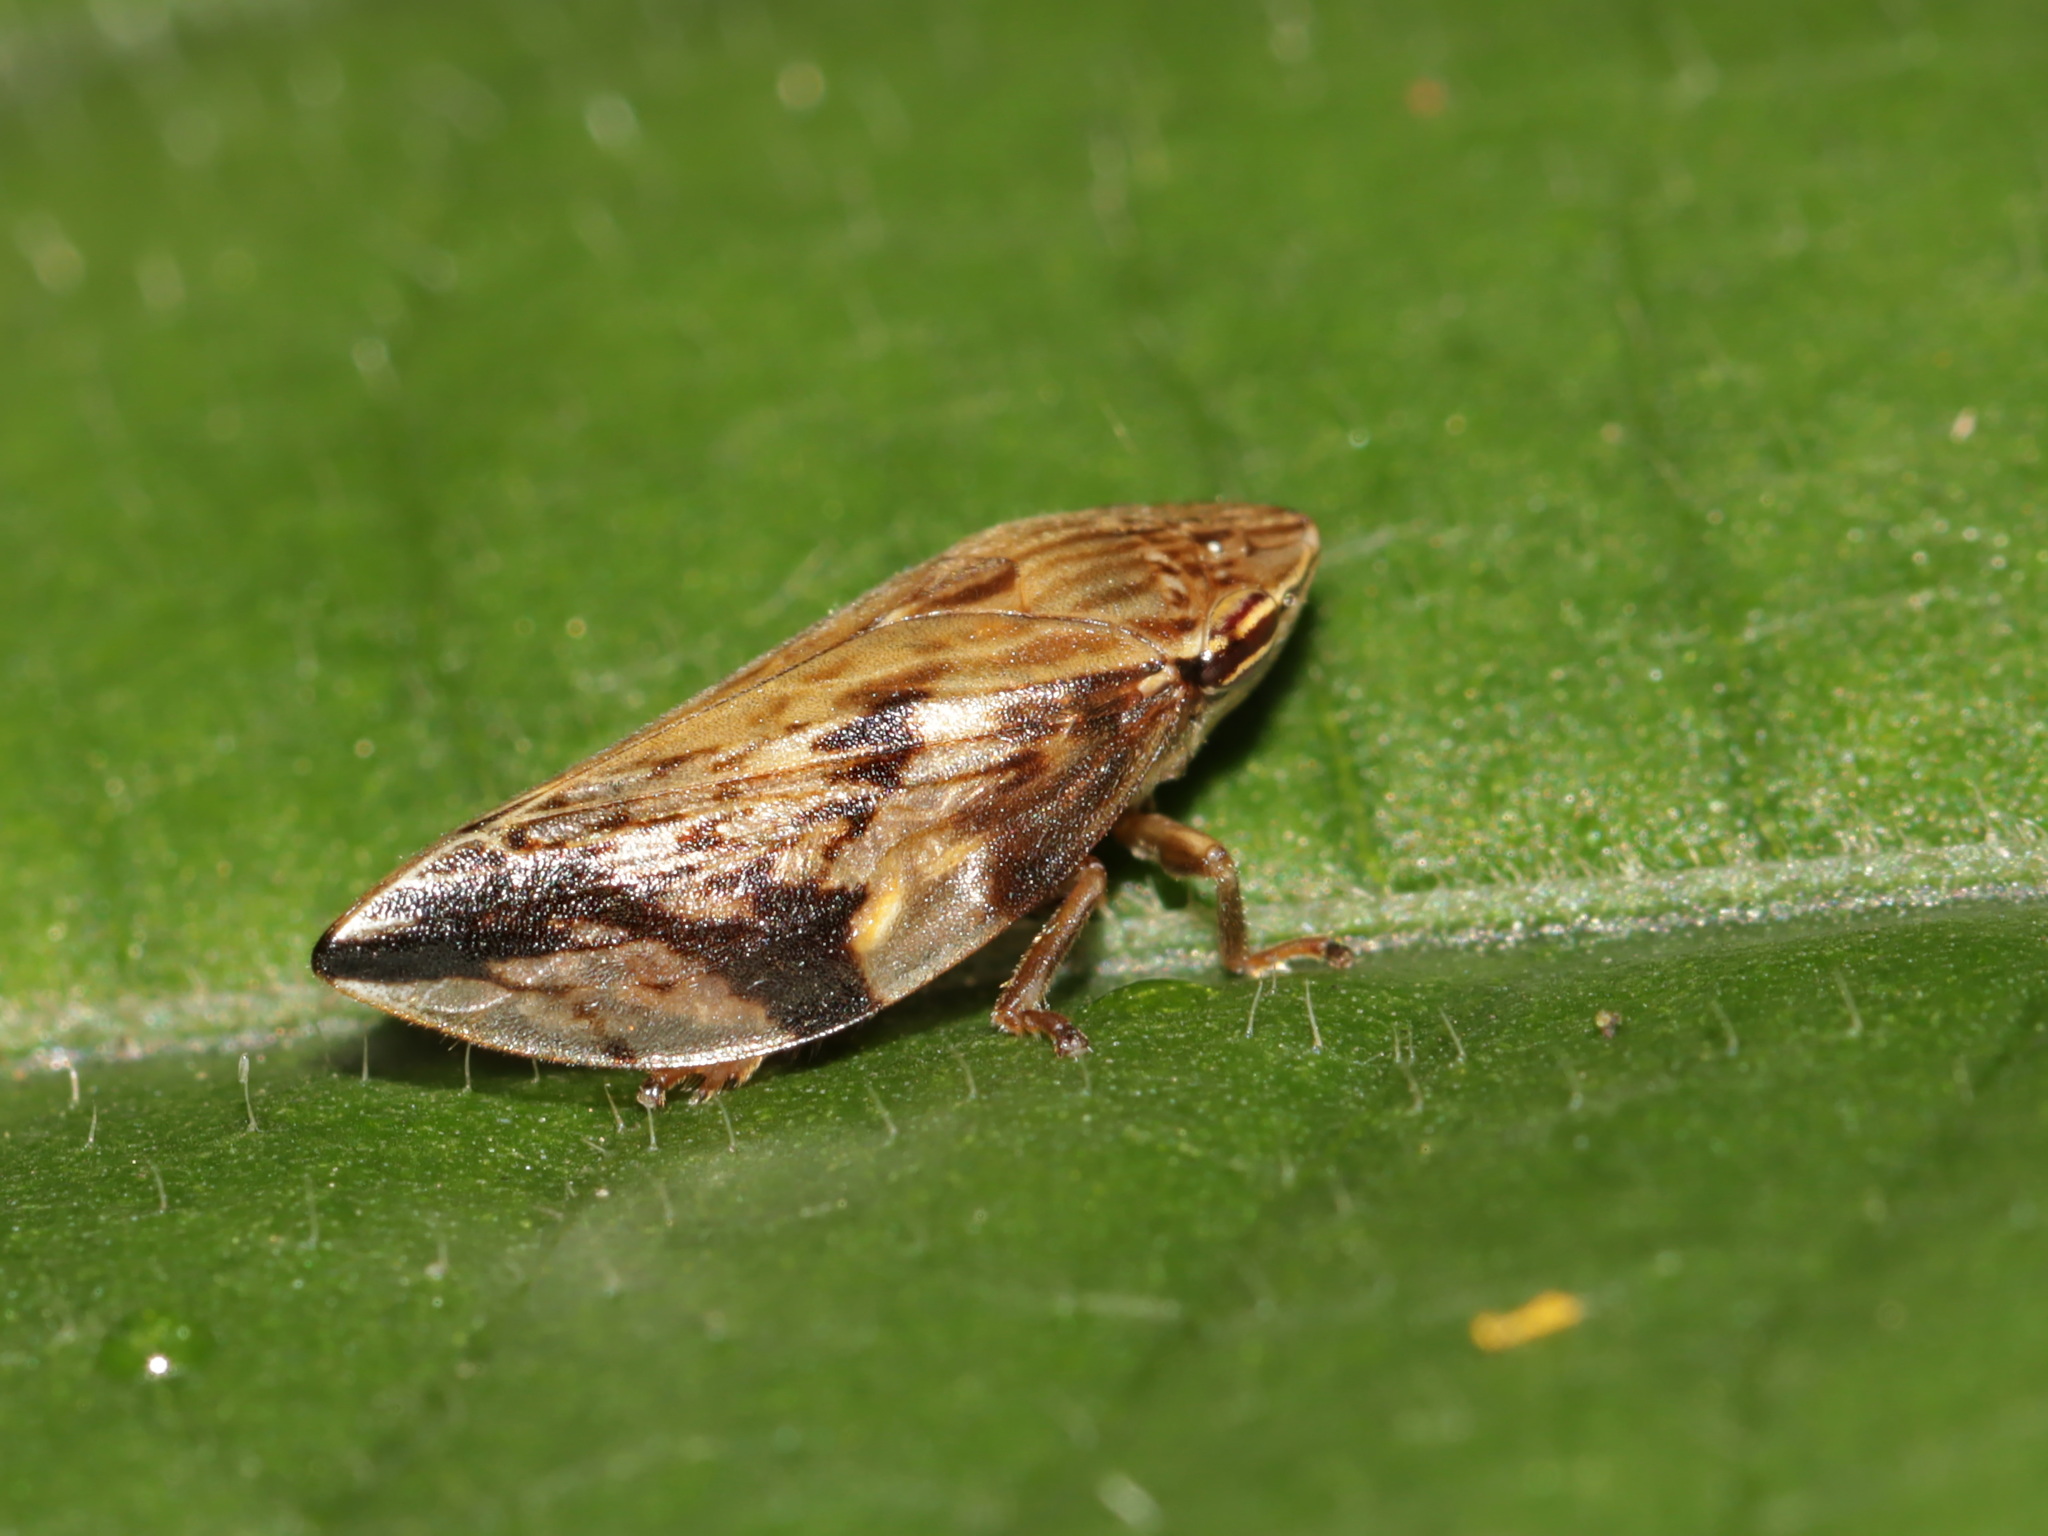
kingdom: Animalia
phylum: Arthropoda
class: Insecta
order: Hemiptera
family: Aphrophoridae
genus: Clovia
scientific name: Clovia conifera
